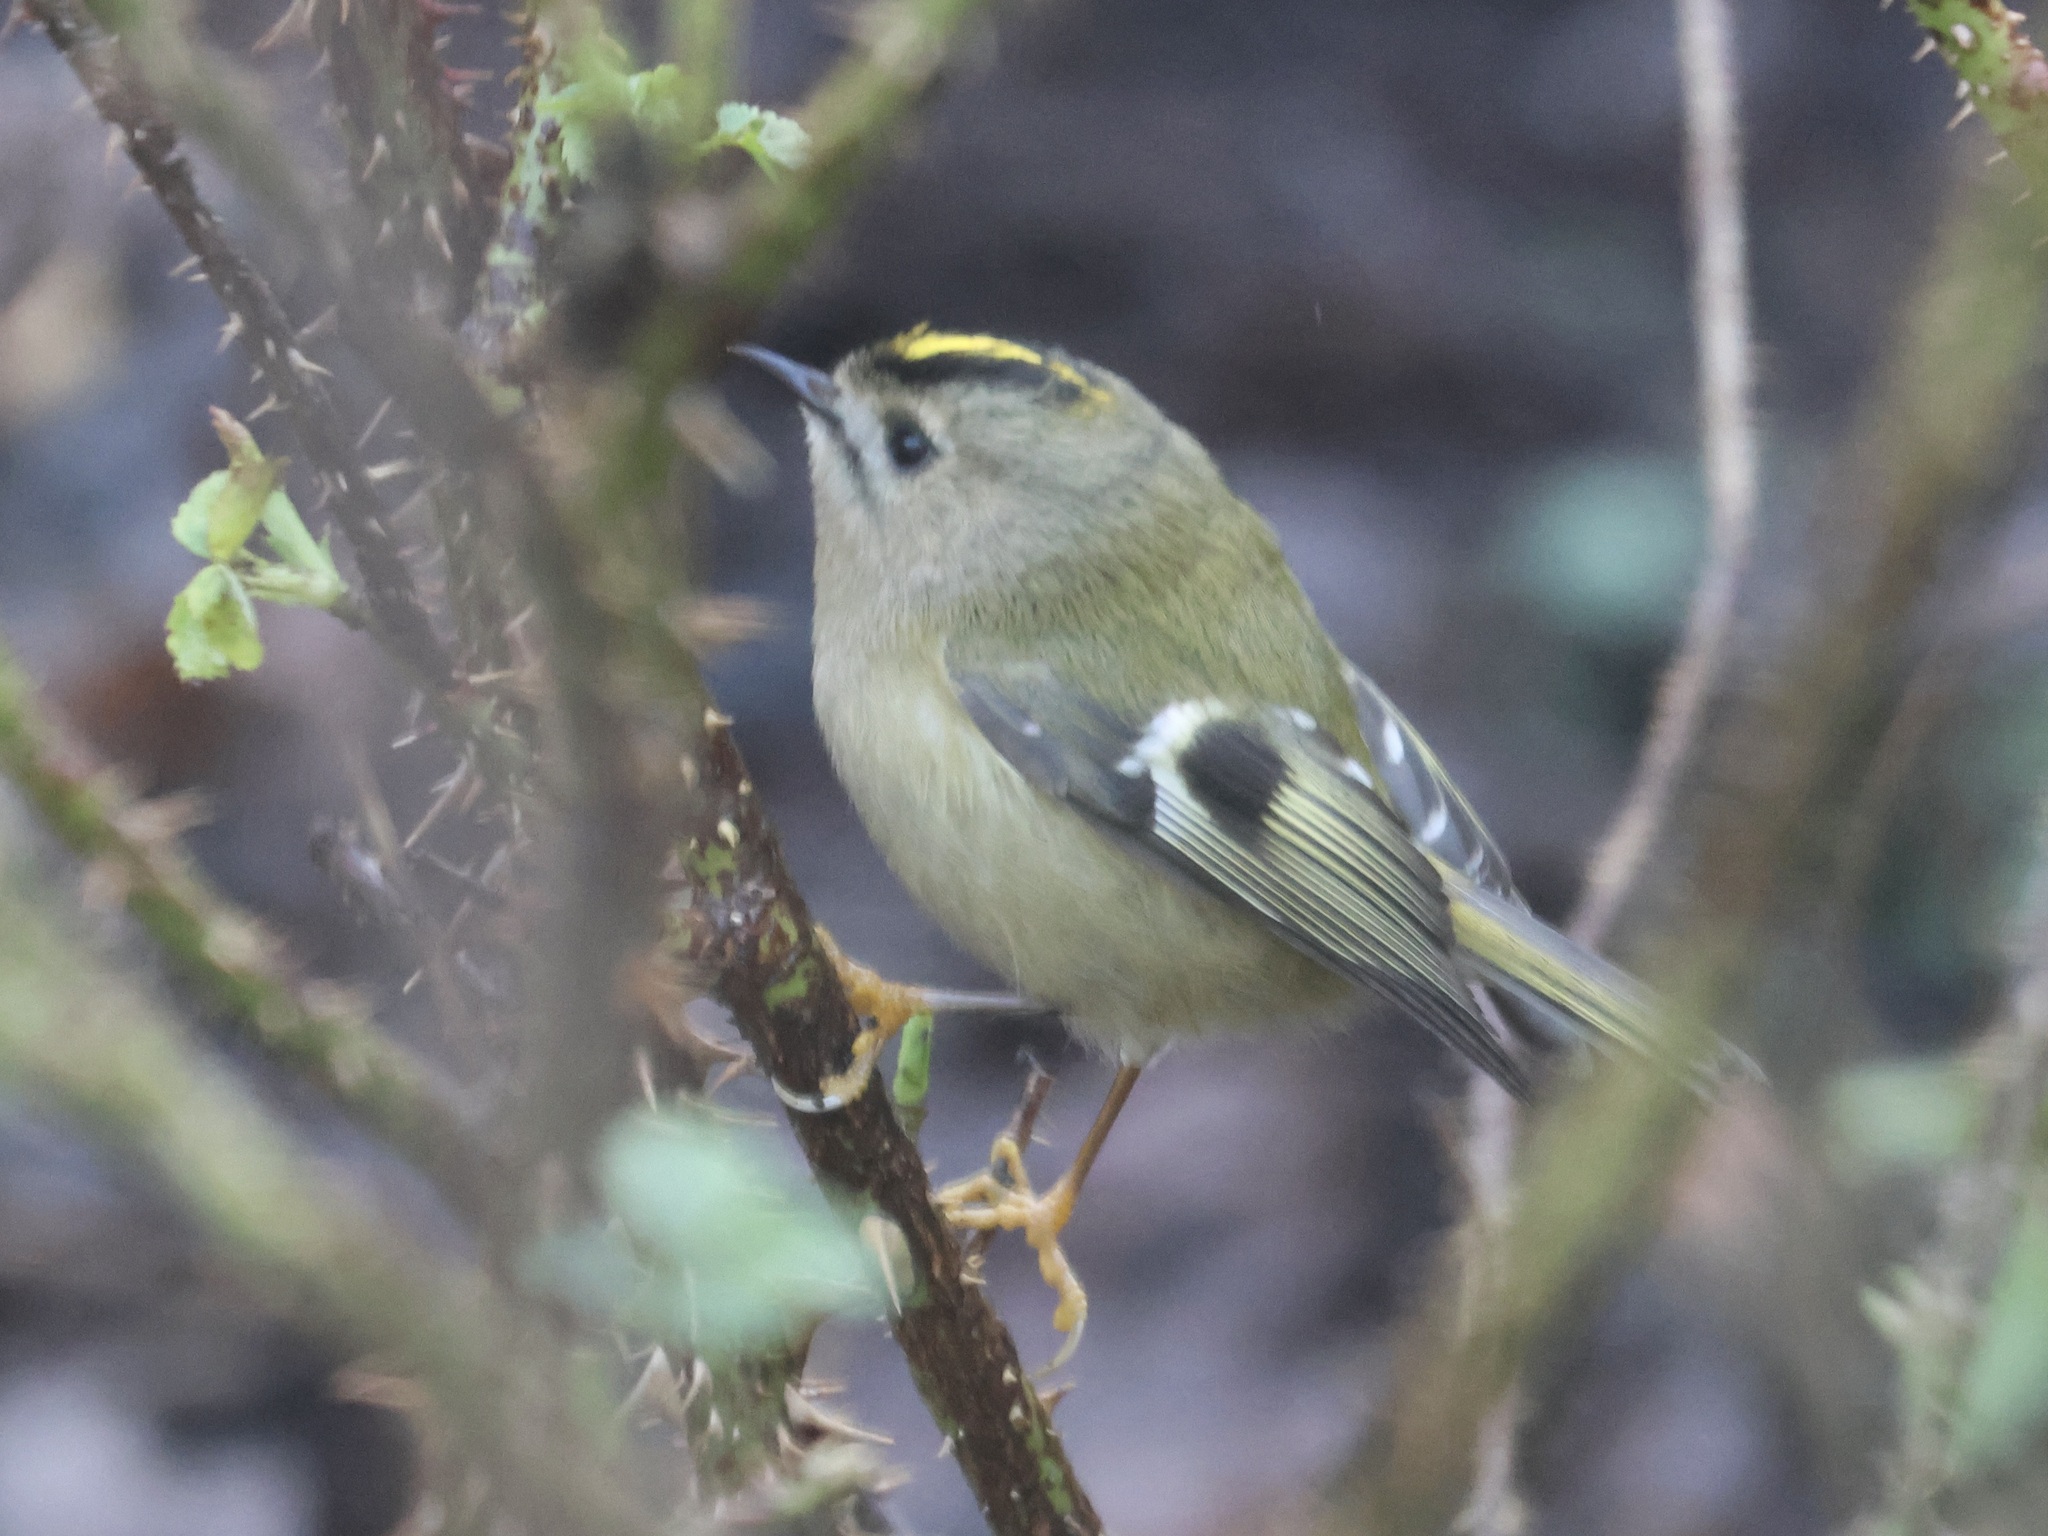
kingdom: Animalia
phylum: Chordata
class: Aves
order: Passeriformes
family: Regulidae
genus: Regulus
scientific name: Regulus regulus
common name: Goldcrest
